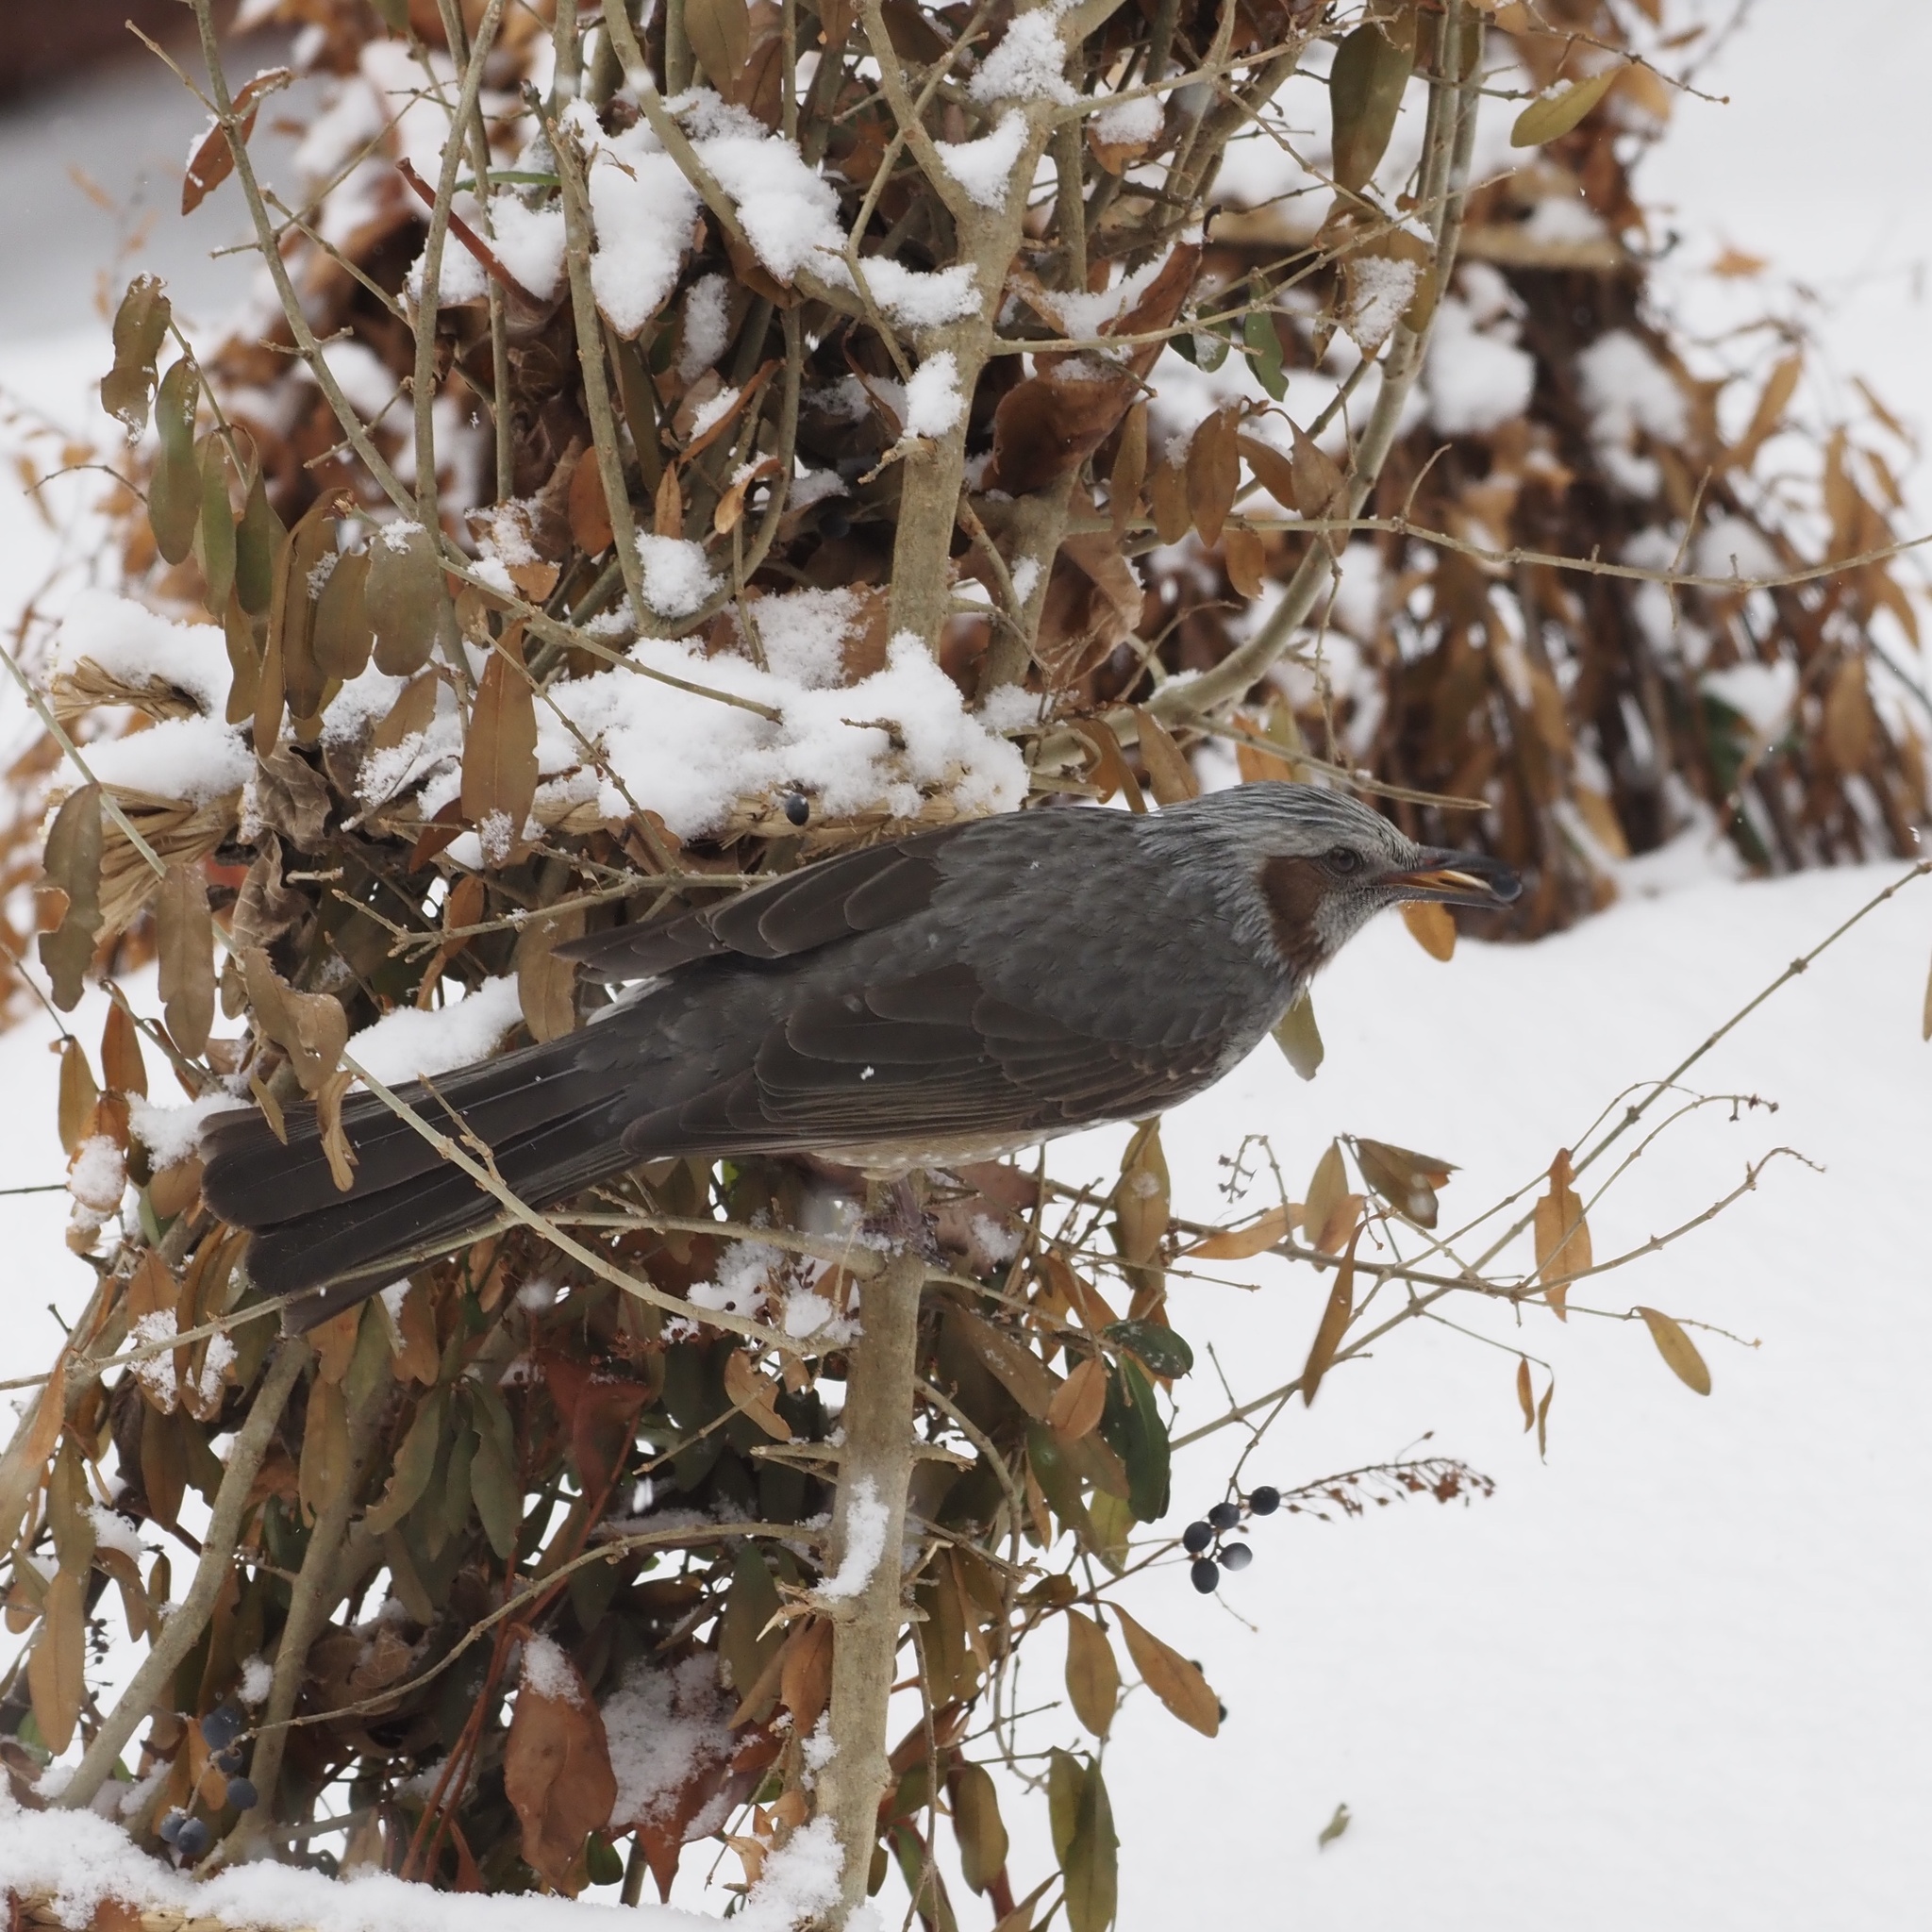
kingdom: Animalia
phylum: Chordata
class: Aves
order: Passeriformes
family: Pycnonotidae
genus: Hypsipetes
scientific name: Hypsipetes amaurotis
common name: Brown-eared bulbul
